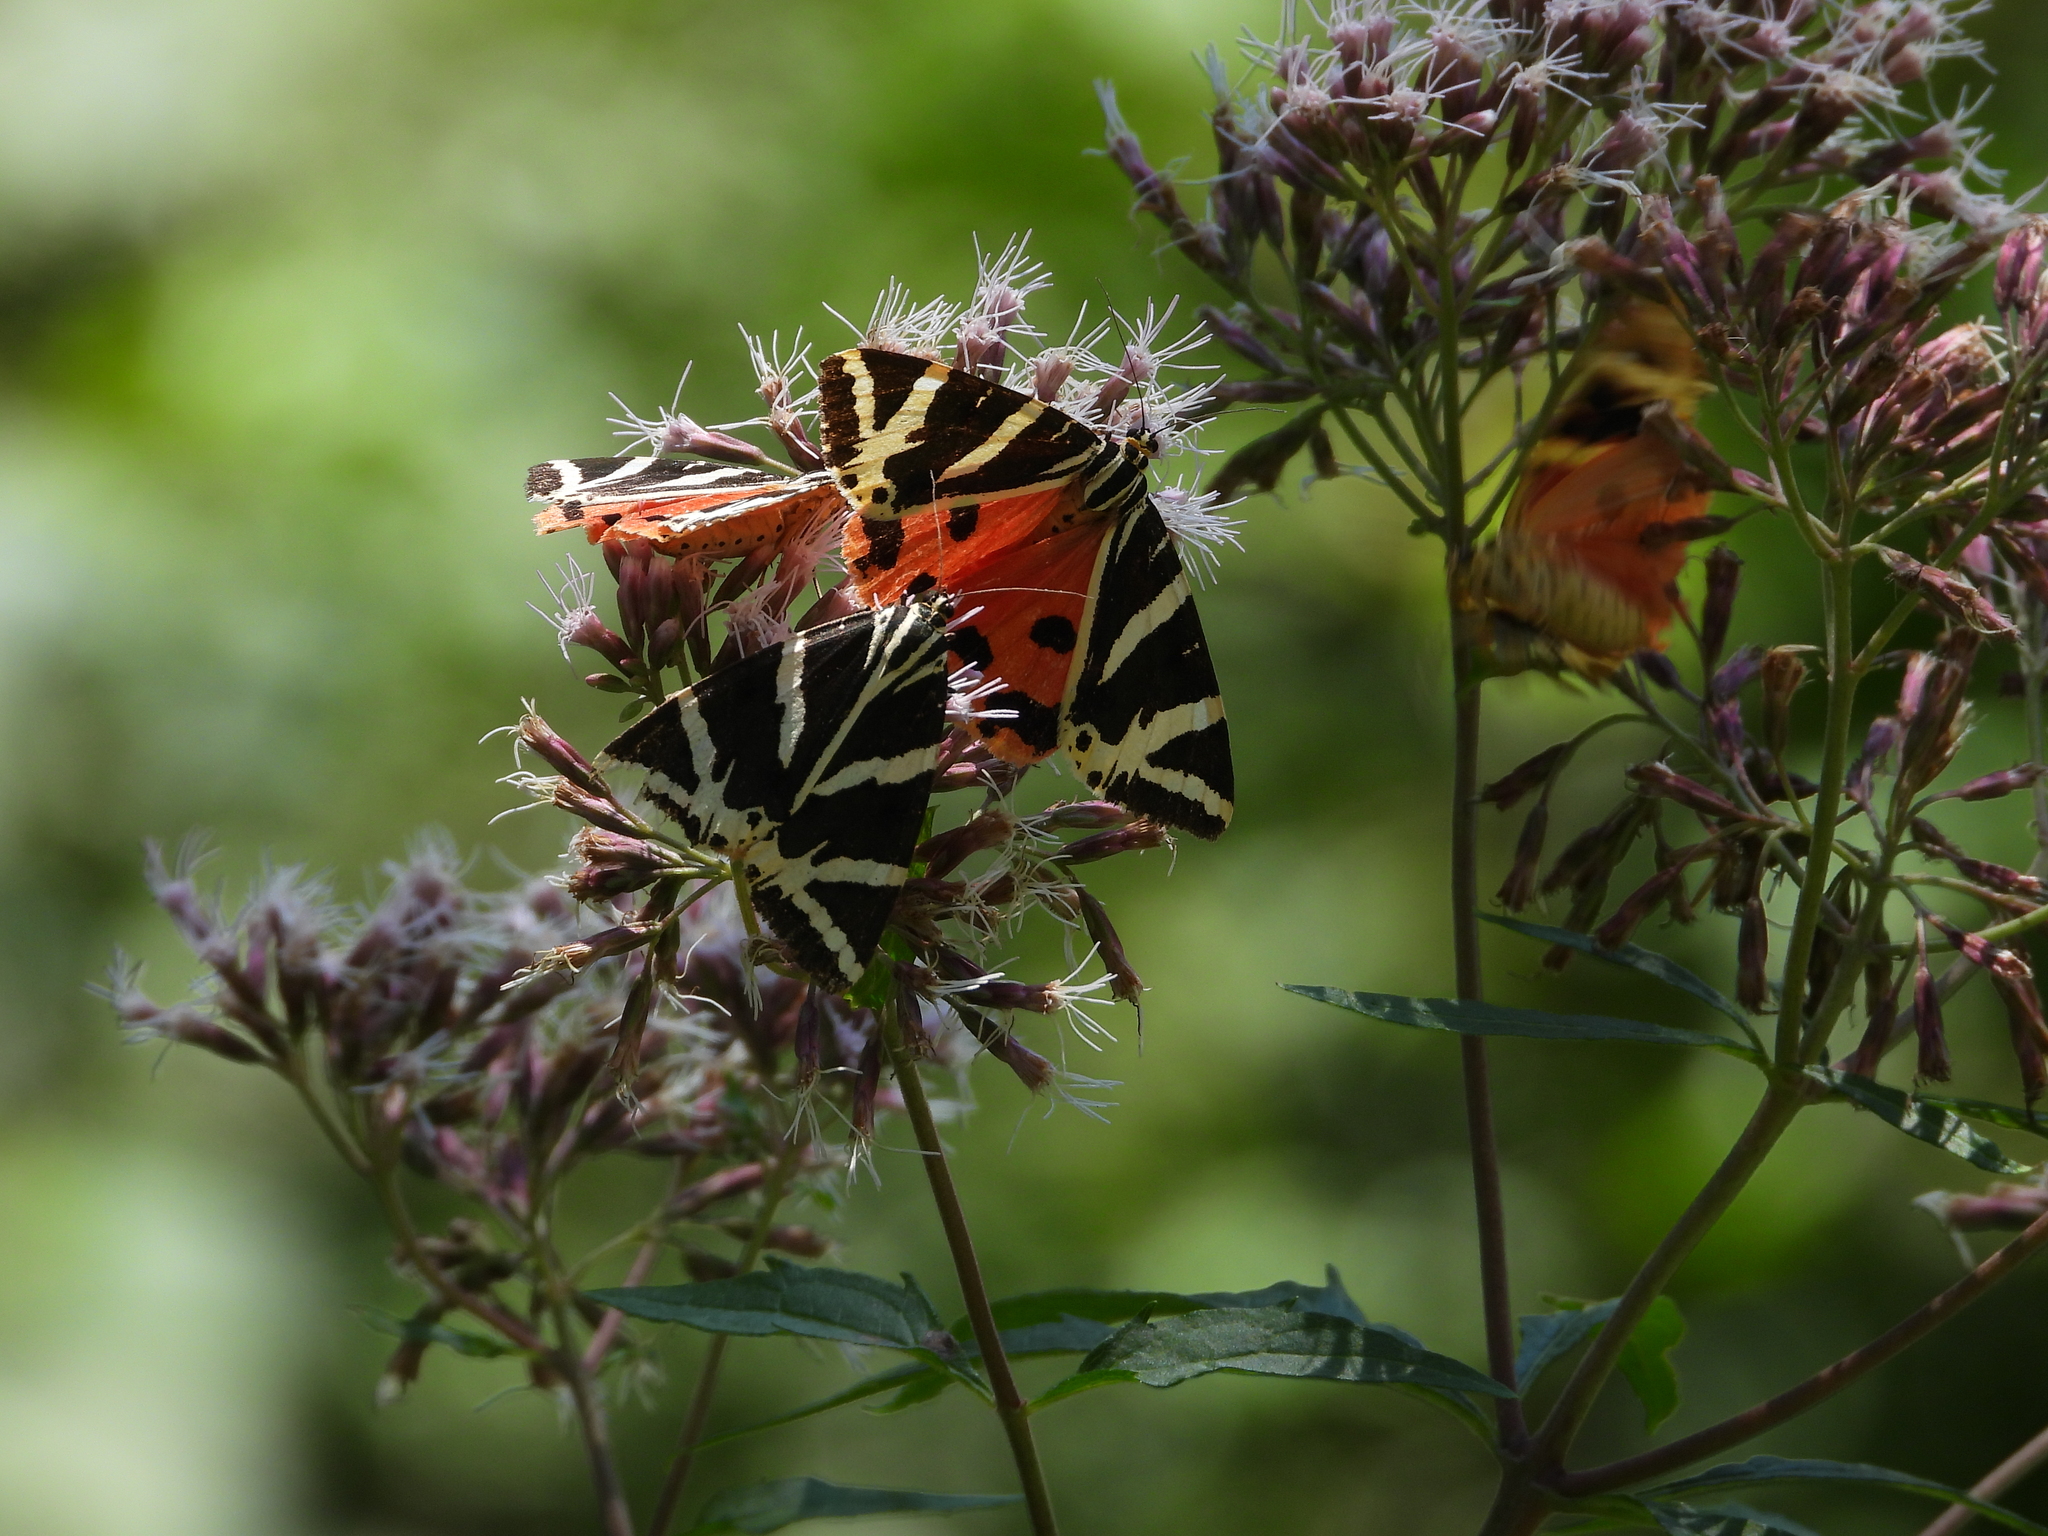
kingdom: Animalia
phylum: Arthropoda
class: Insecta
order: Lepidoptera
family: Erebidae
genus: Euplagia
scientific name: Euplagia quadripunctaria
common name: Jersey tiger
